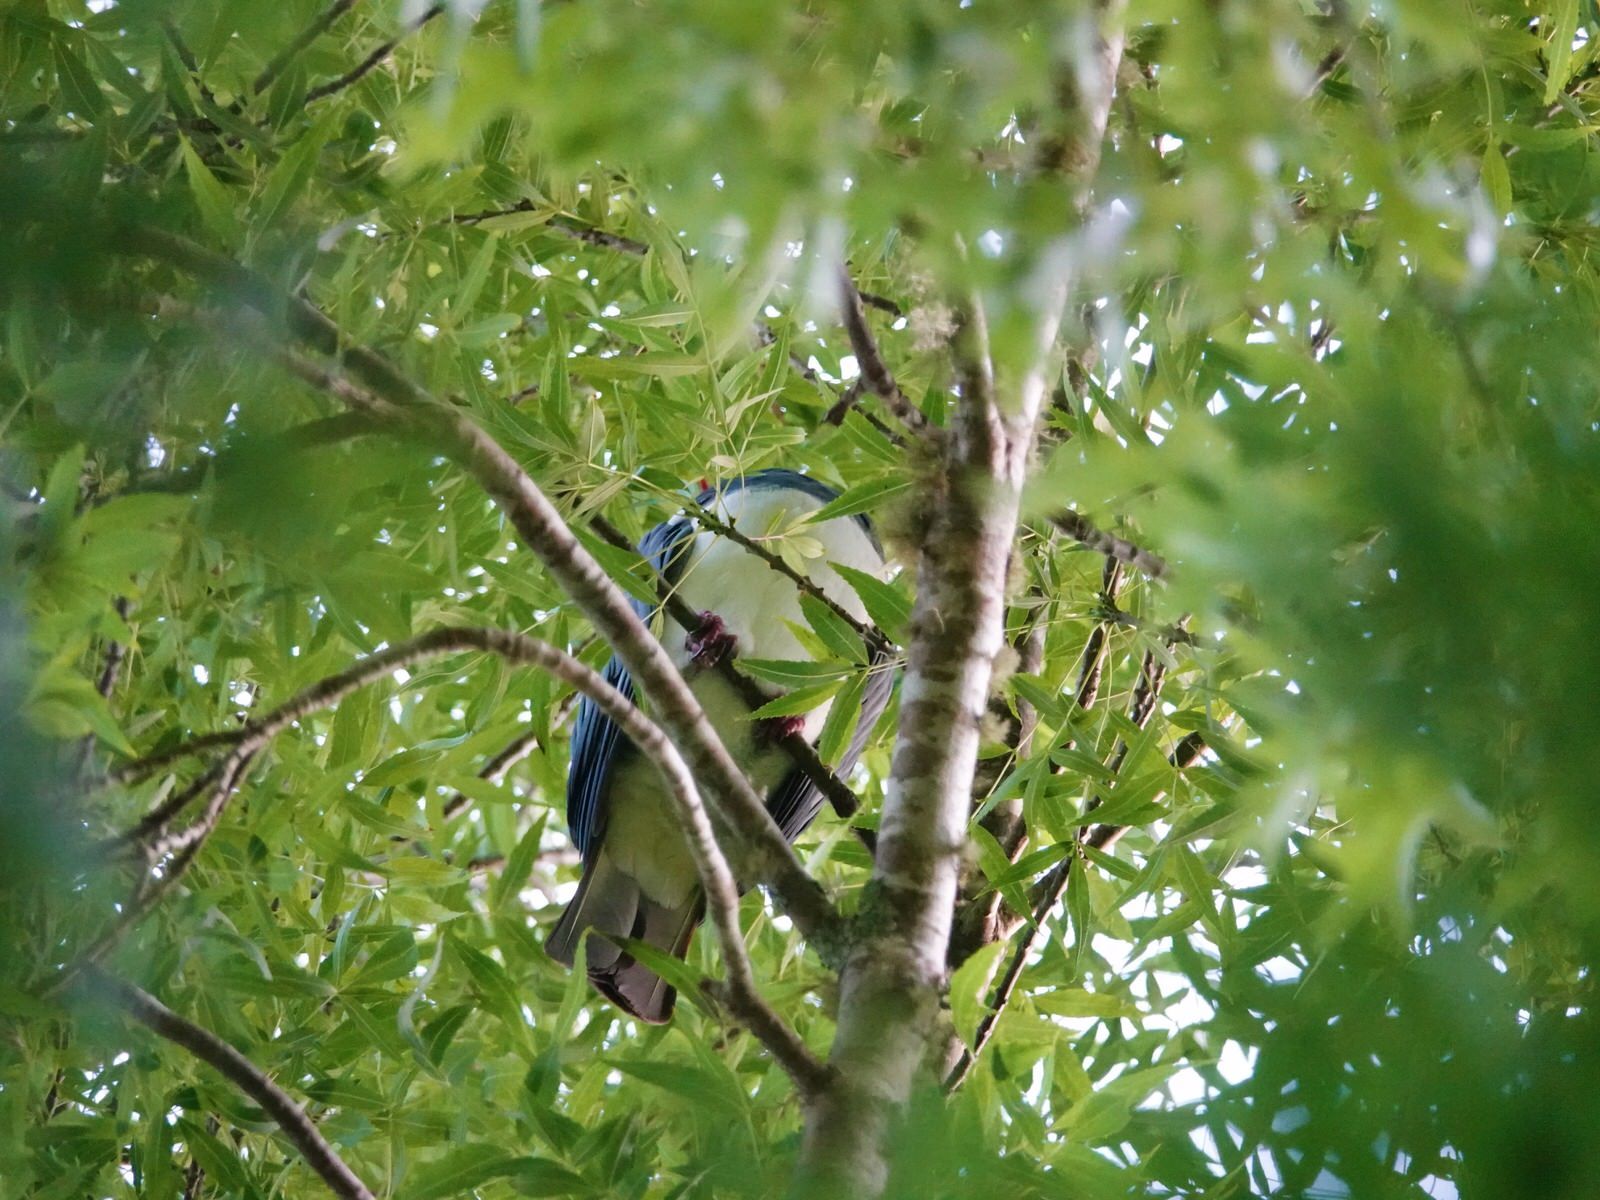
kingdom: Animalia
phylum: Chordata
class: Aves
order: Columbiformes
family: Columbidae
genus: Hemiphaga
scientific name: Hemiphaga novaeseelandiae
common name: New zealand pigeon
